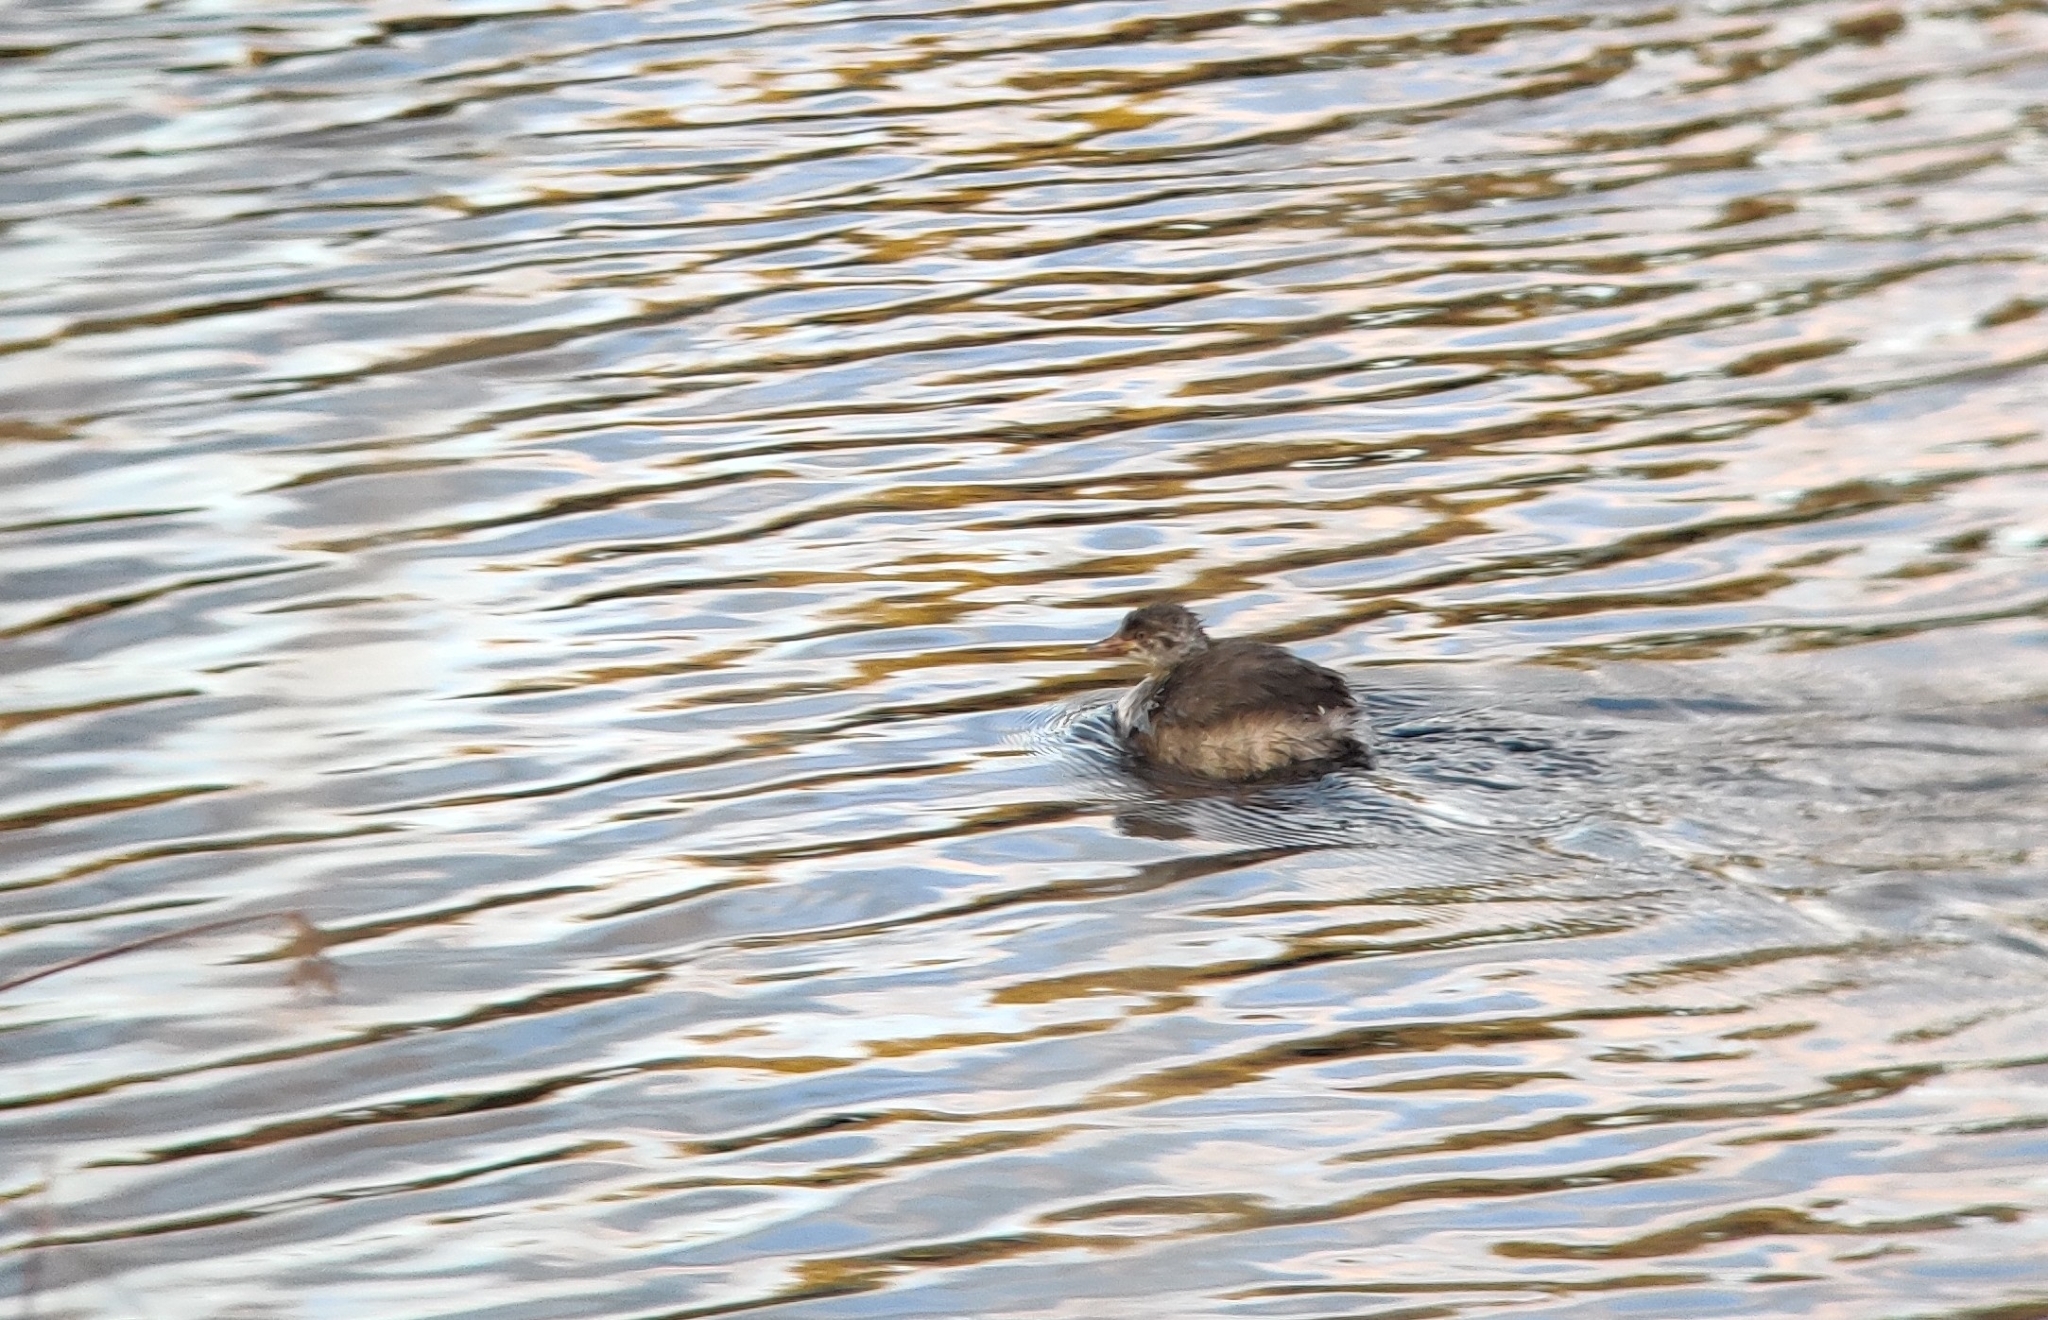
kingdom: Animalia
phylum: Chordata
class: Aves
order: Podicipediformes
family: Podicipedidae
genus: Tachybaptus
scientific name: Tachybaptus novaehollandiae
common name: Australasian grebe
